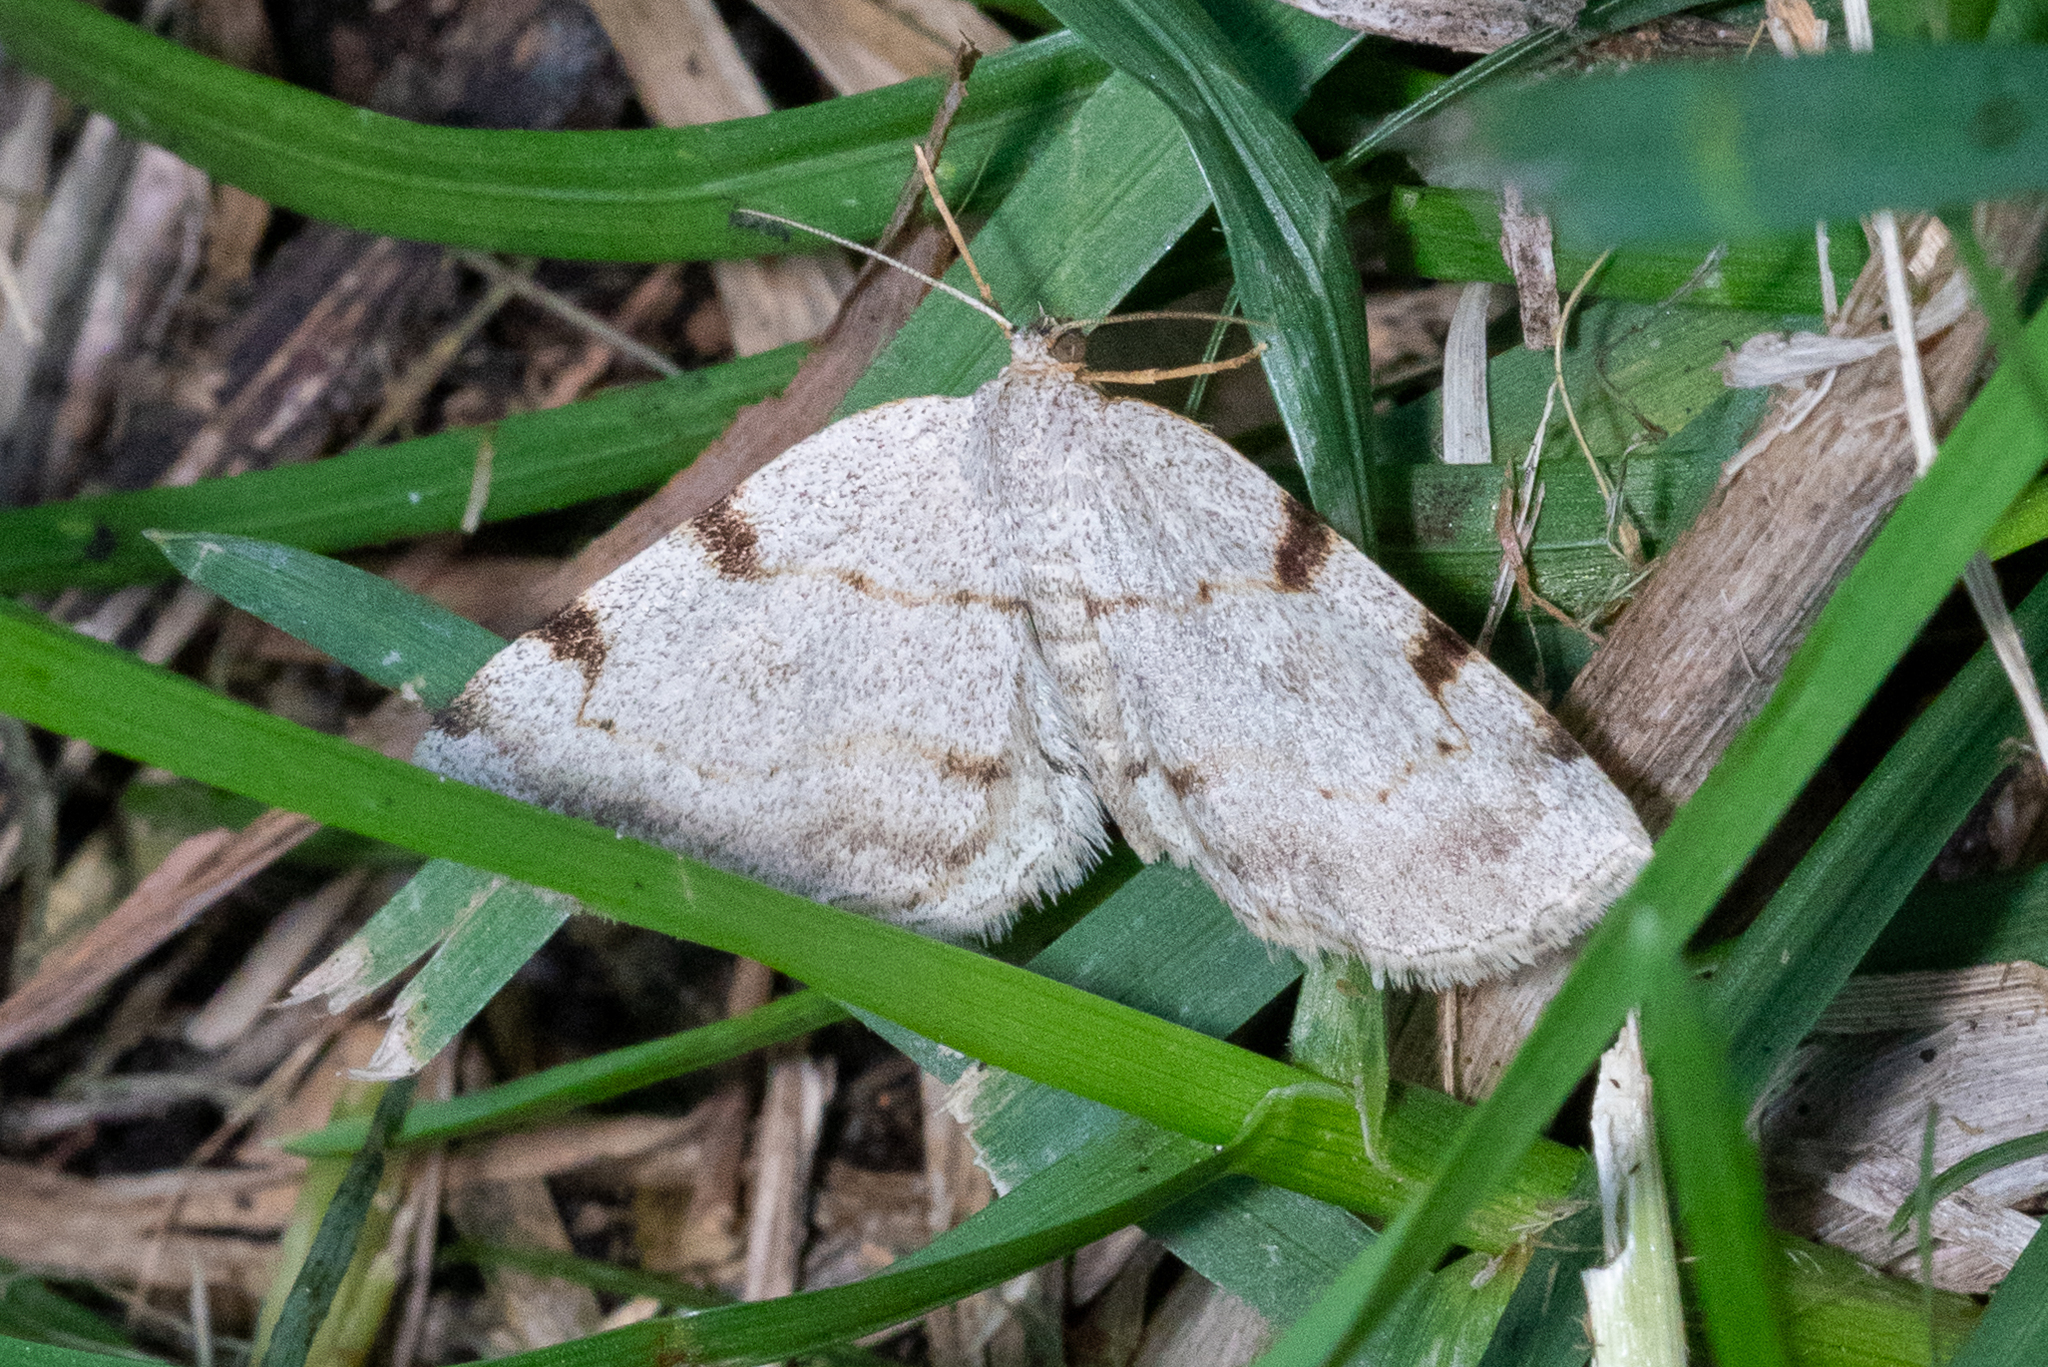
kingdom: Animalia
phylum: Arthropoda
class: Insecta
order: Lepidoptera
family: Geometridae
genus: Heterophleps
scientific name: Heterophleps refusaria
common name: Three-patched bigwing
